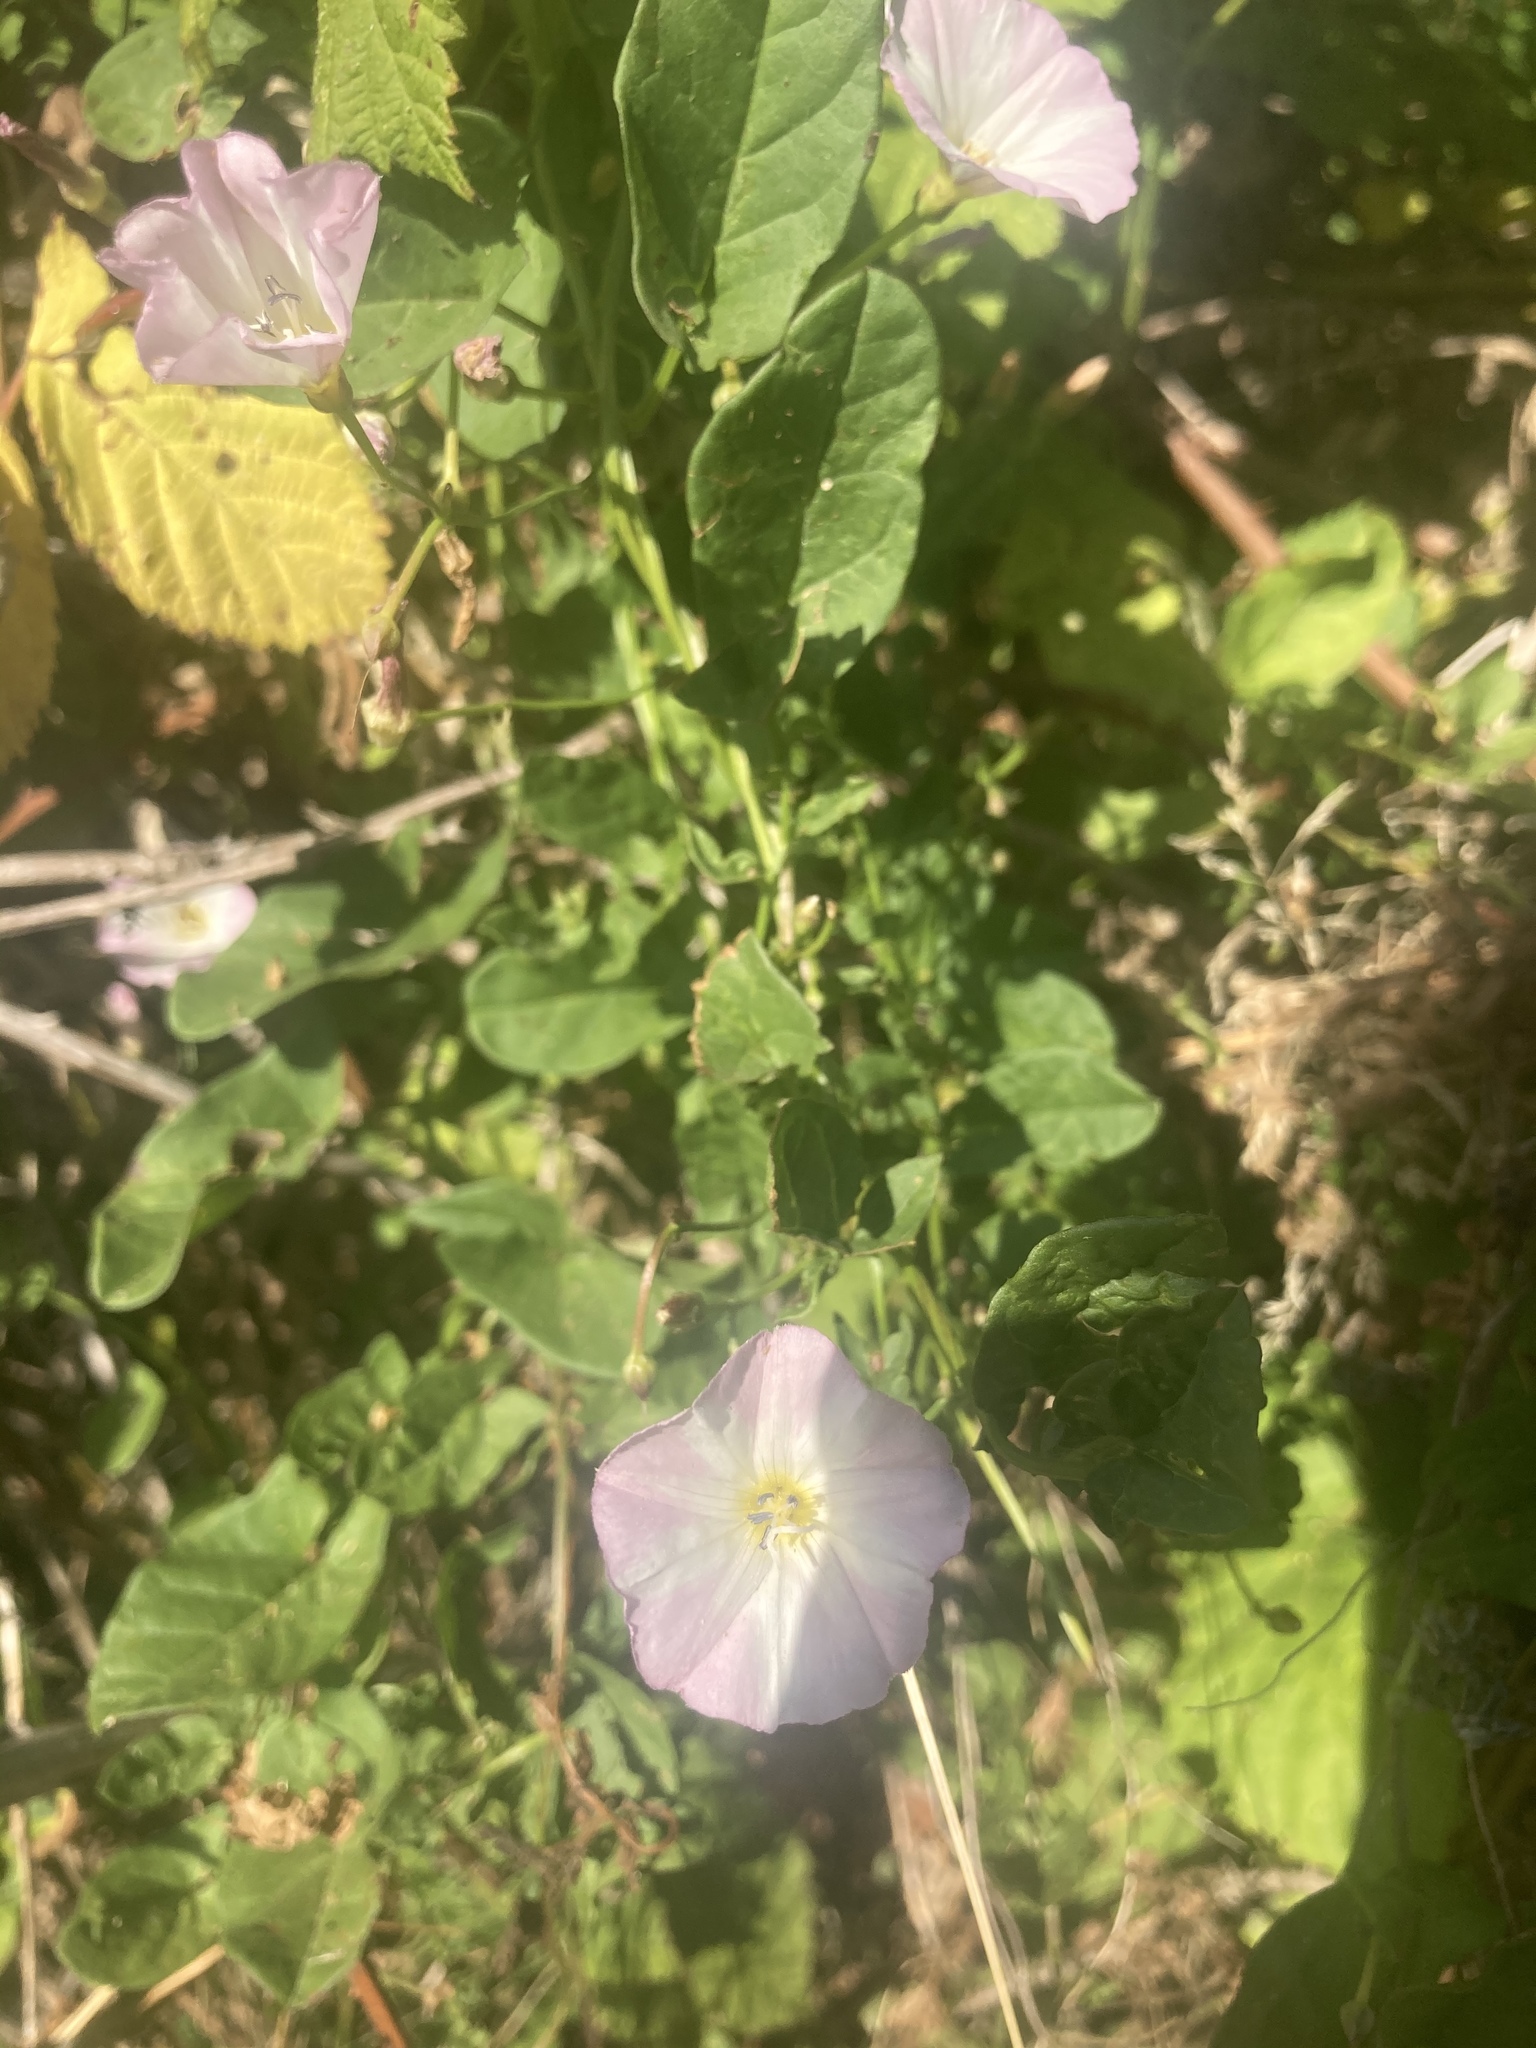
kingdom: Plantae
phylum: Tracheophyta
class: Magnoliopsida
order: Solanales
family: Convolvulaceae
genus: Convolvulus
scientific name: Convolvulus arvensis
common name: Field bindweed
